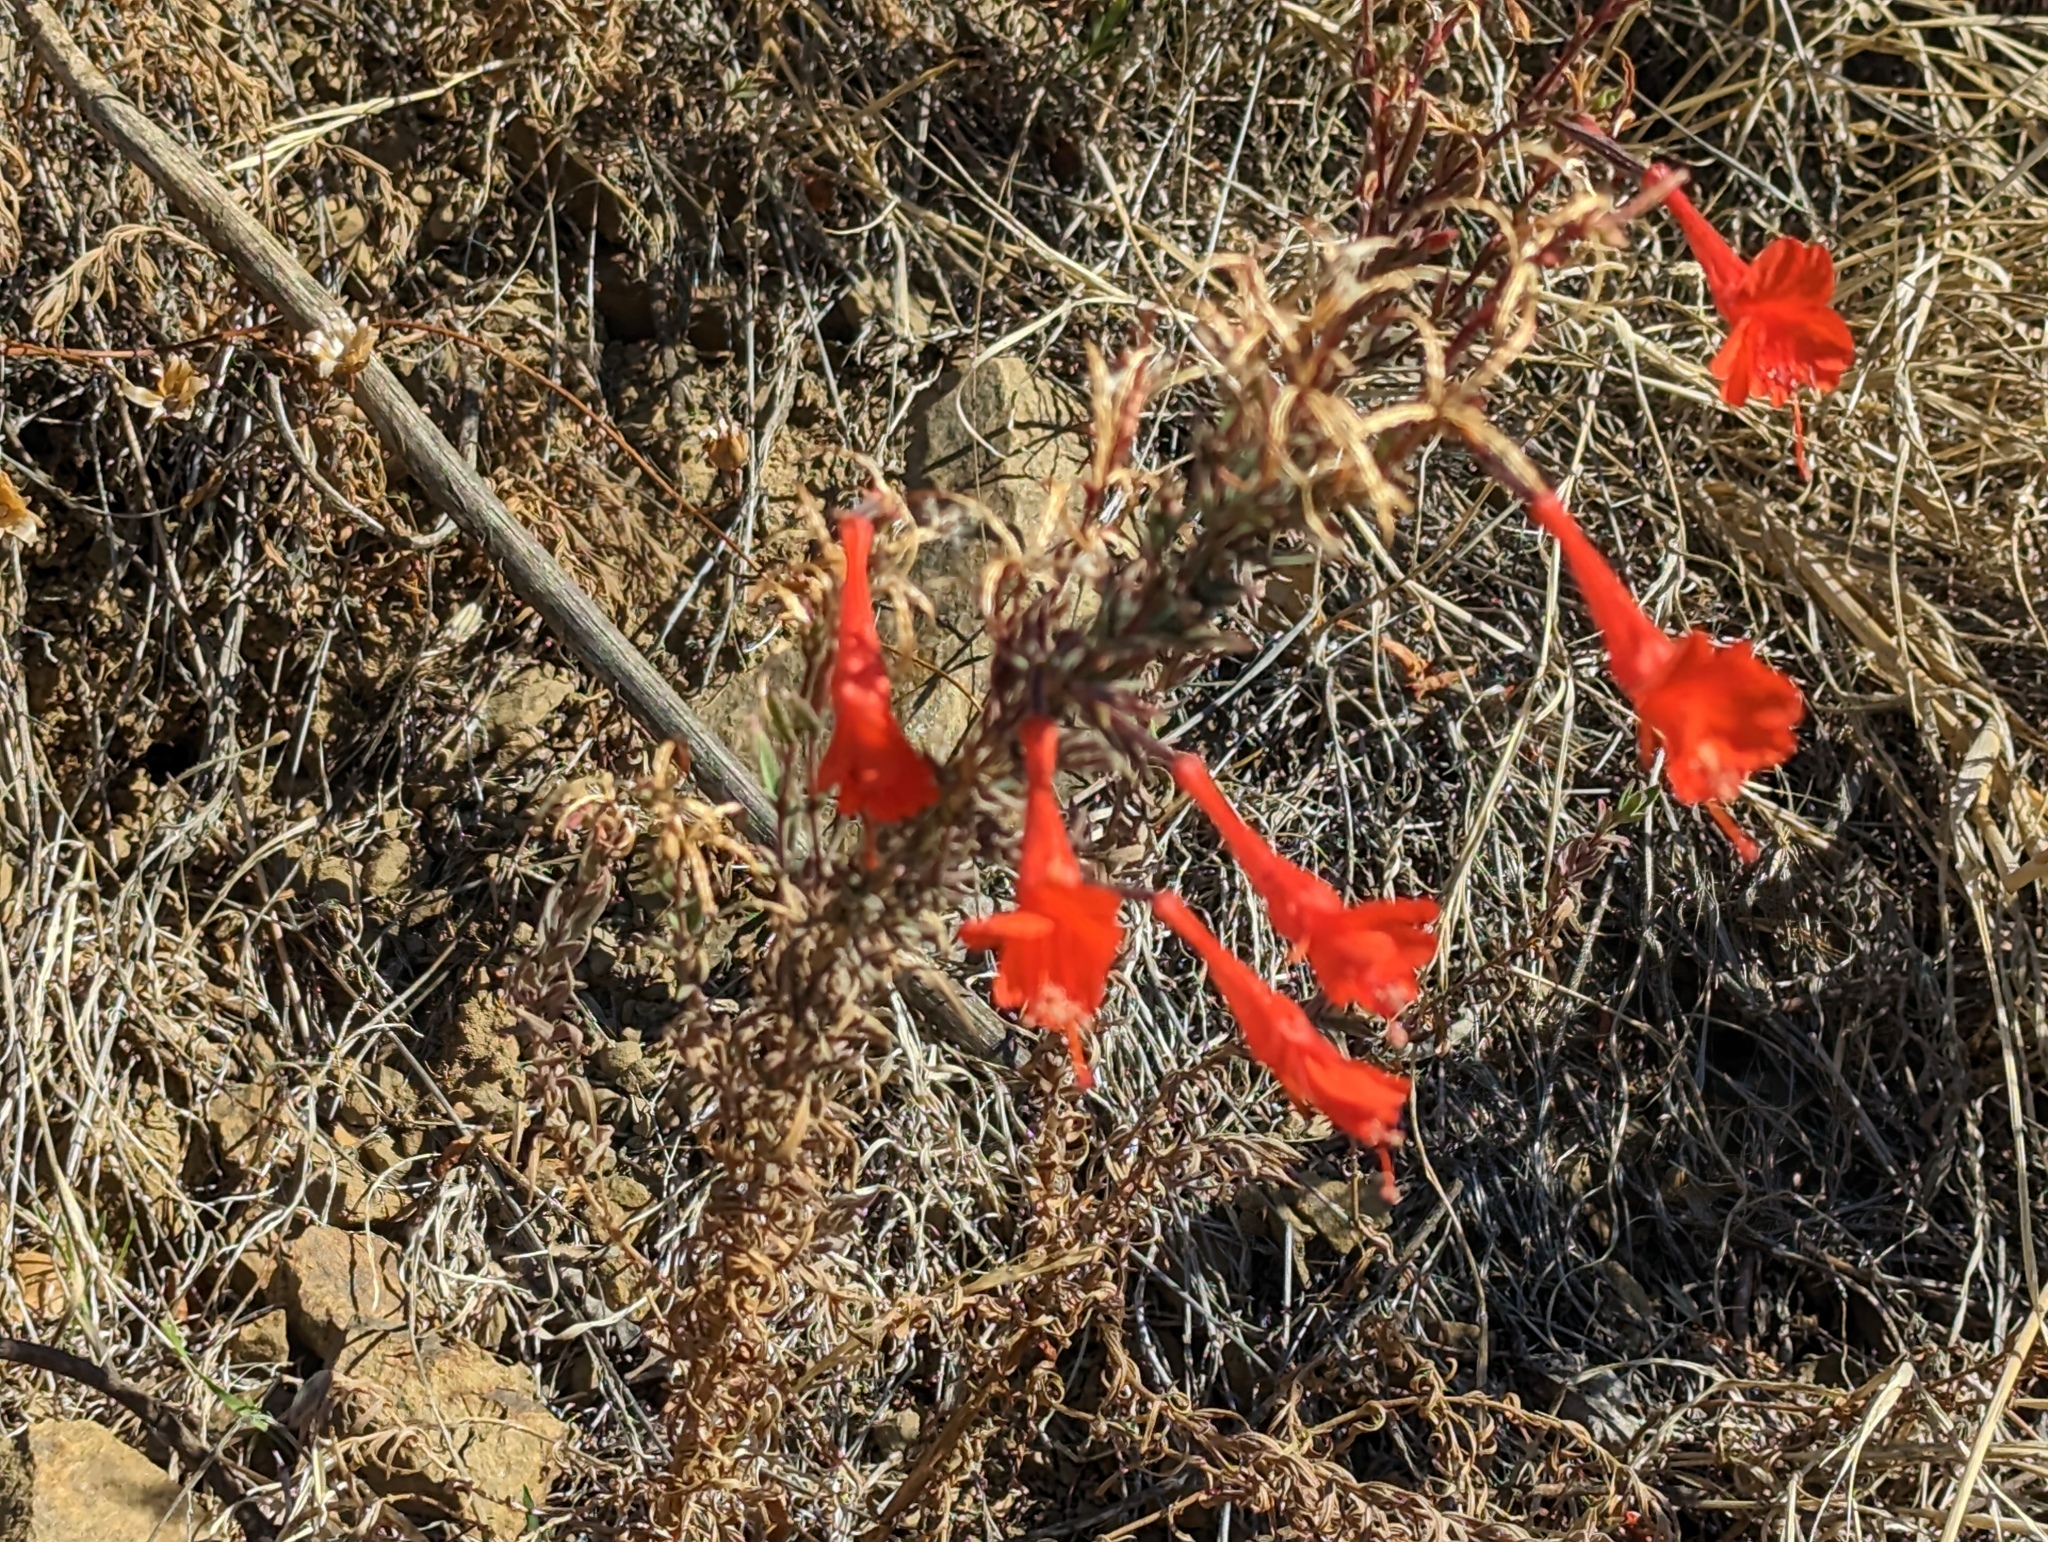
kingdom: Plantae
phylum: Tracheophyta
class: Magnoliopsida
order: Myrtales
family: Onagraceae
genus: Epilobium
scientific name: Epilobium canum
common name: California-fuchsia
